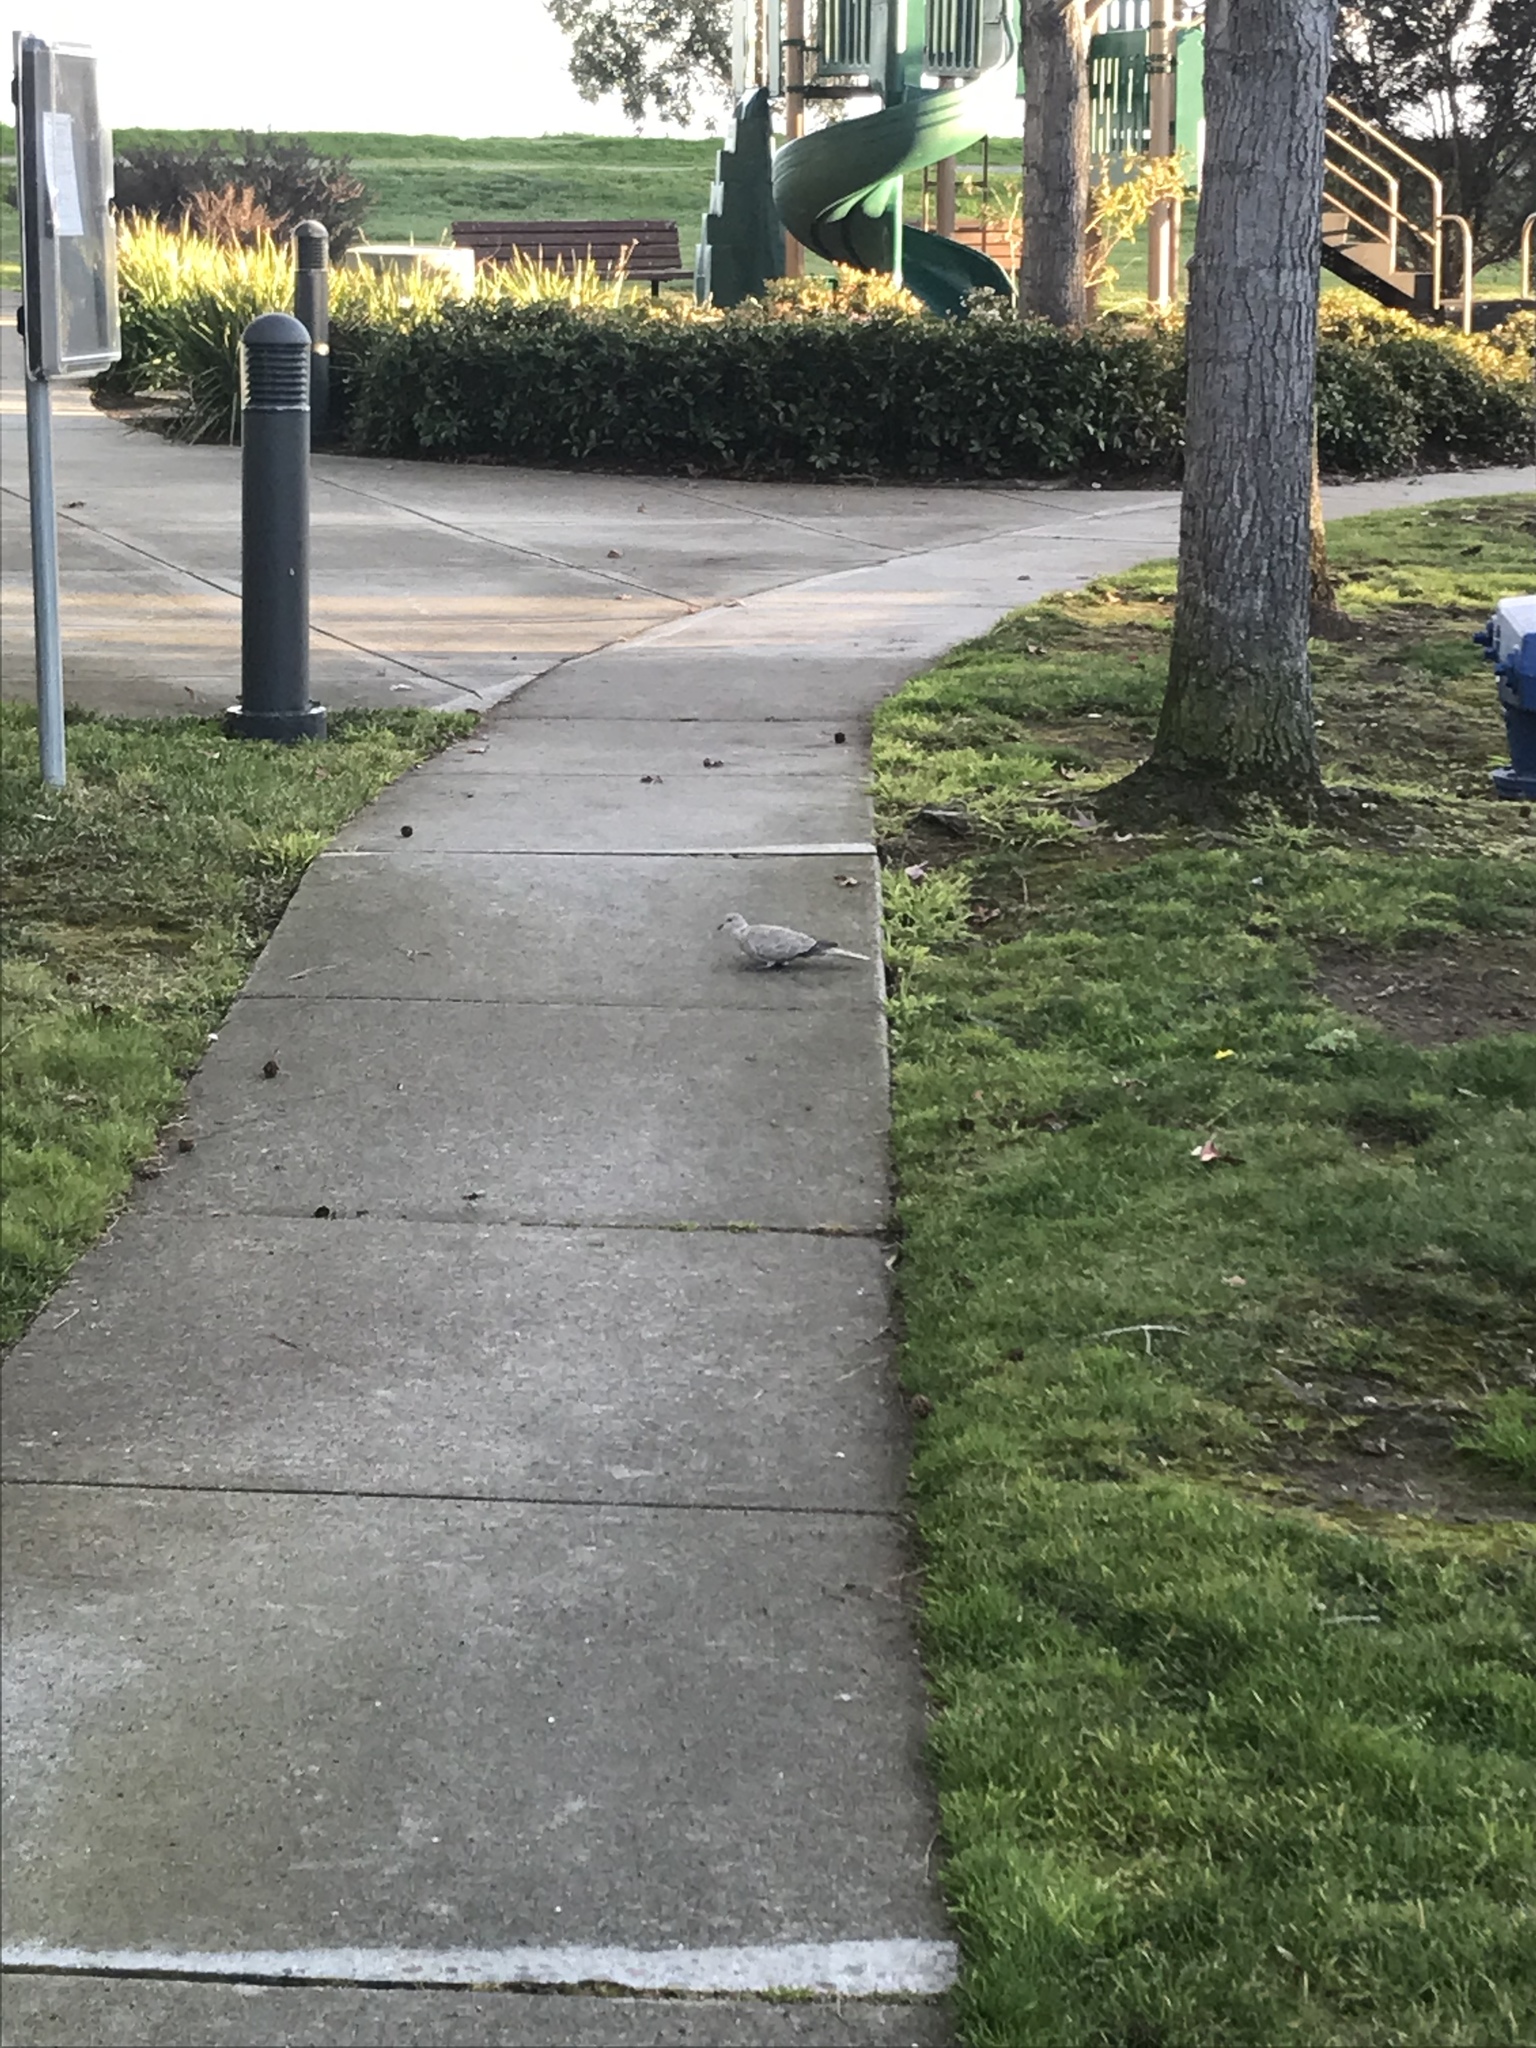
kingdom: Animalia
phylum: Chordata
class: Aves
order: Columbiformes
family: Columbidae
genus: Streptopelia
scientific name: Streptopelia decaocto
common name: Eurasian collared dove
